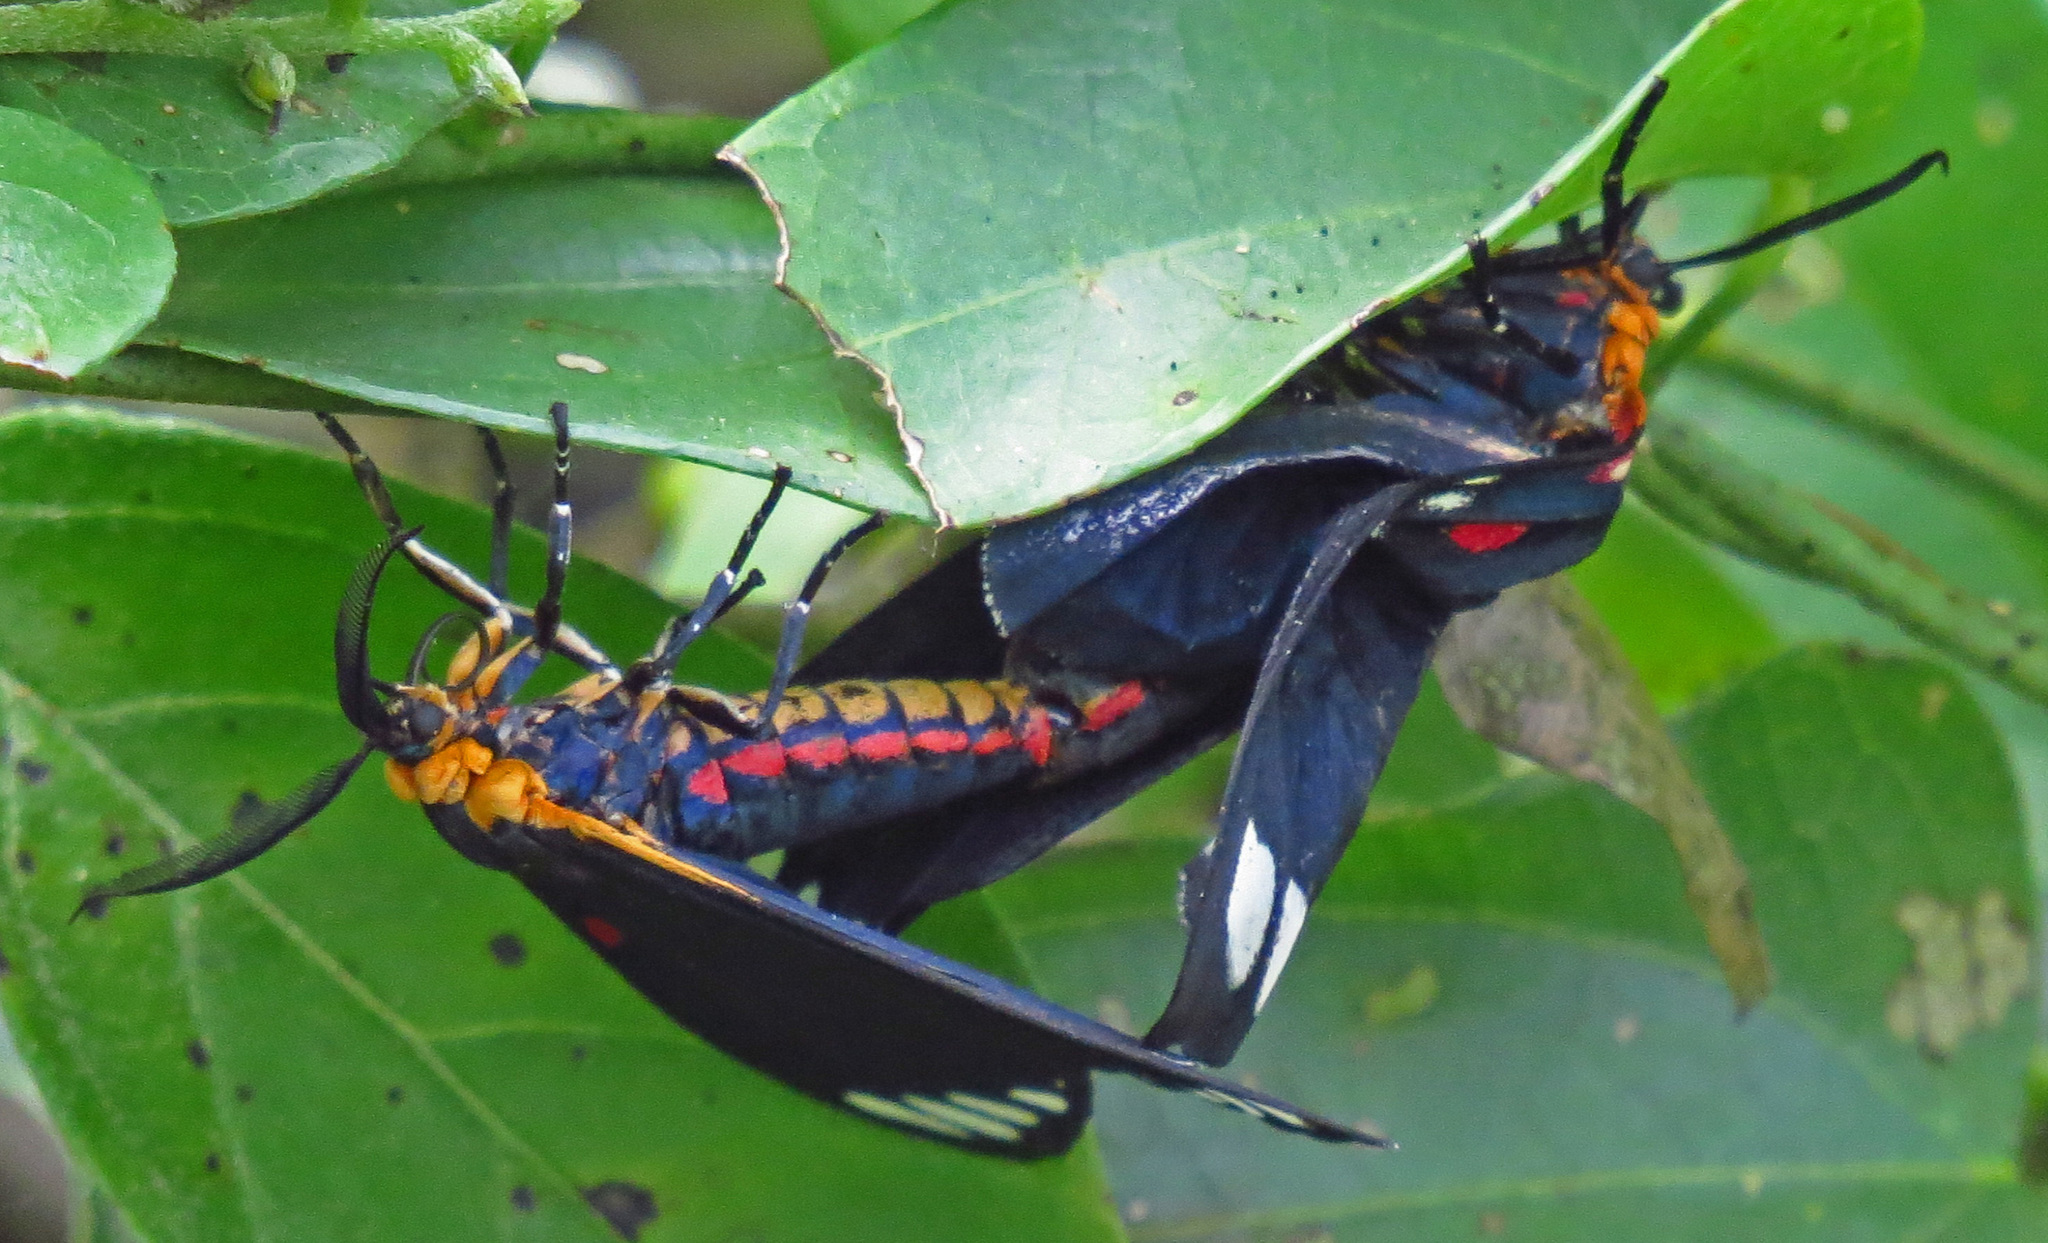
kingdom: Animalia
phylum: Arthropoda
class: Insecta
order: Lepidoptera
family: Erebidae
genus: Phaloesia
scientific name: Phaloesia saucia
